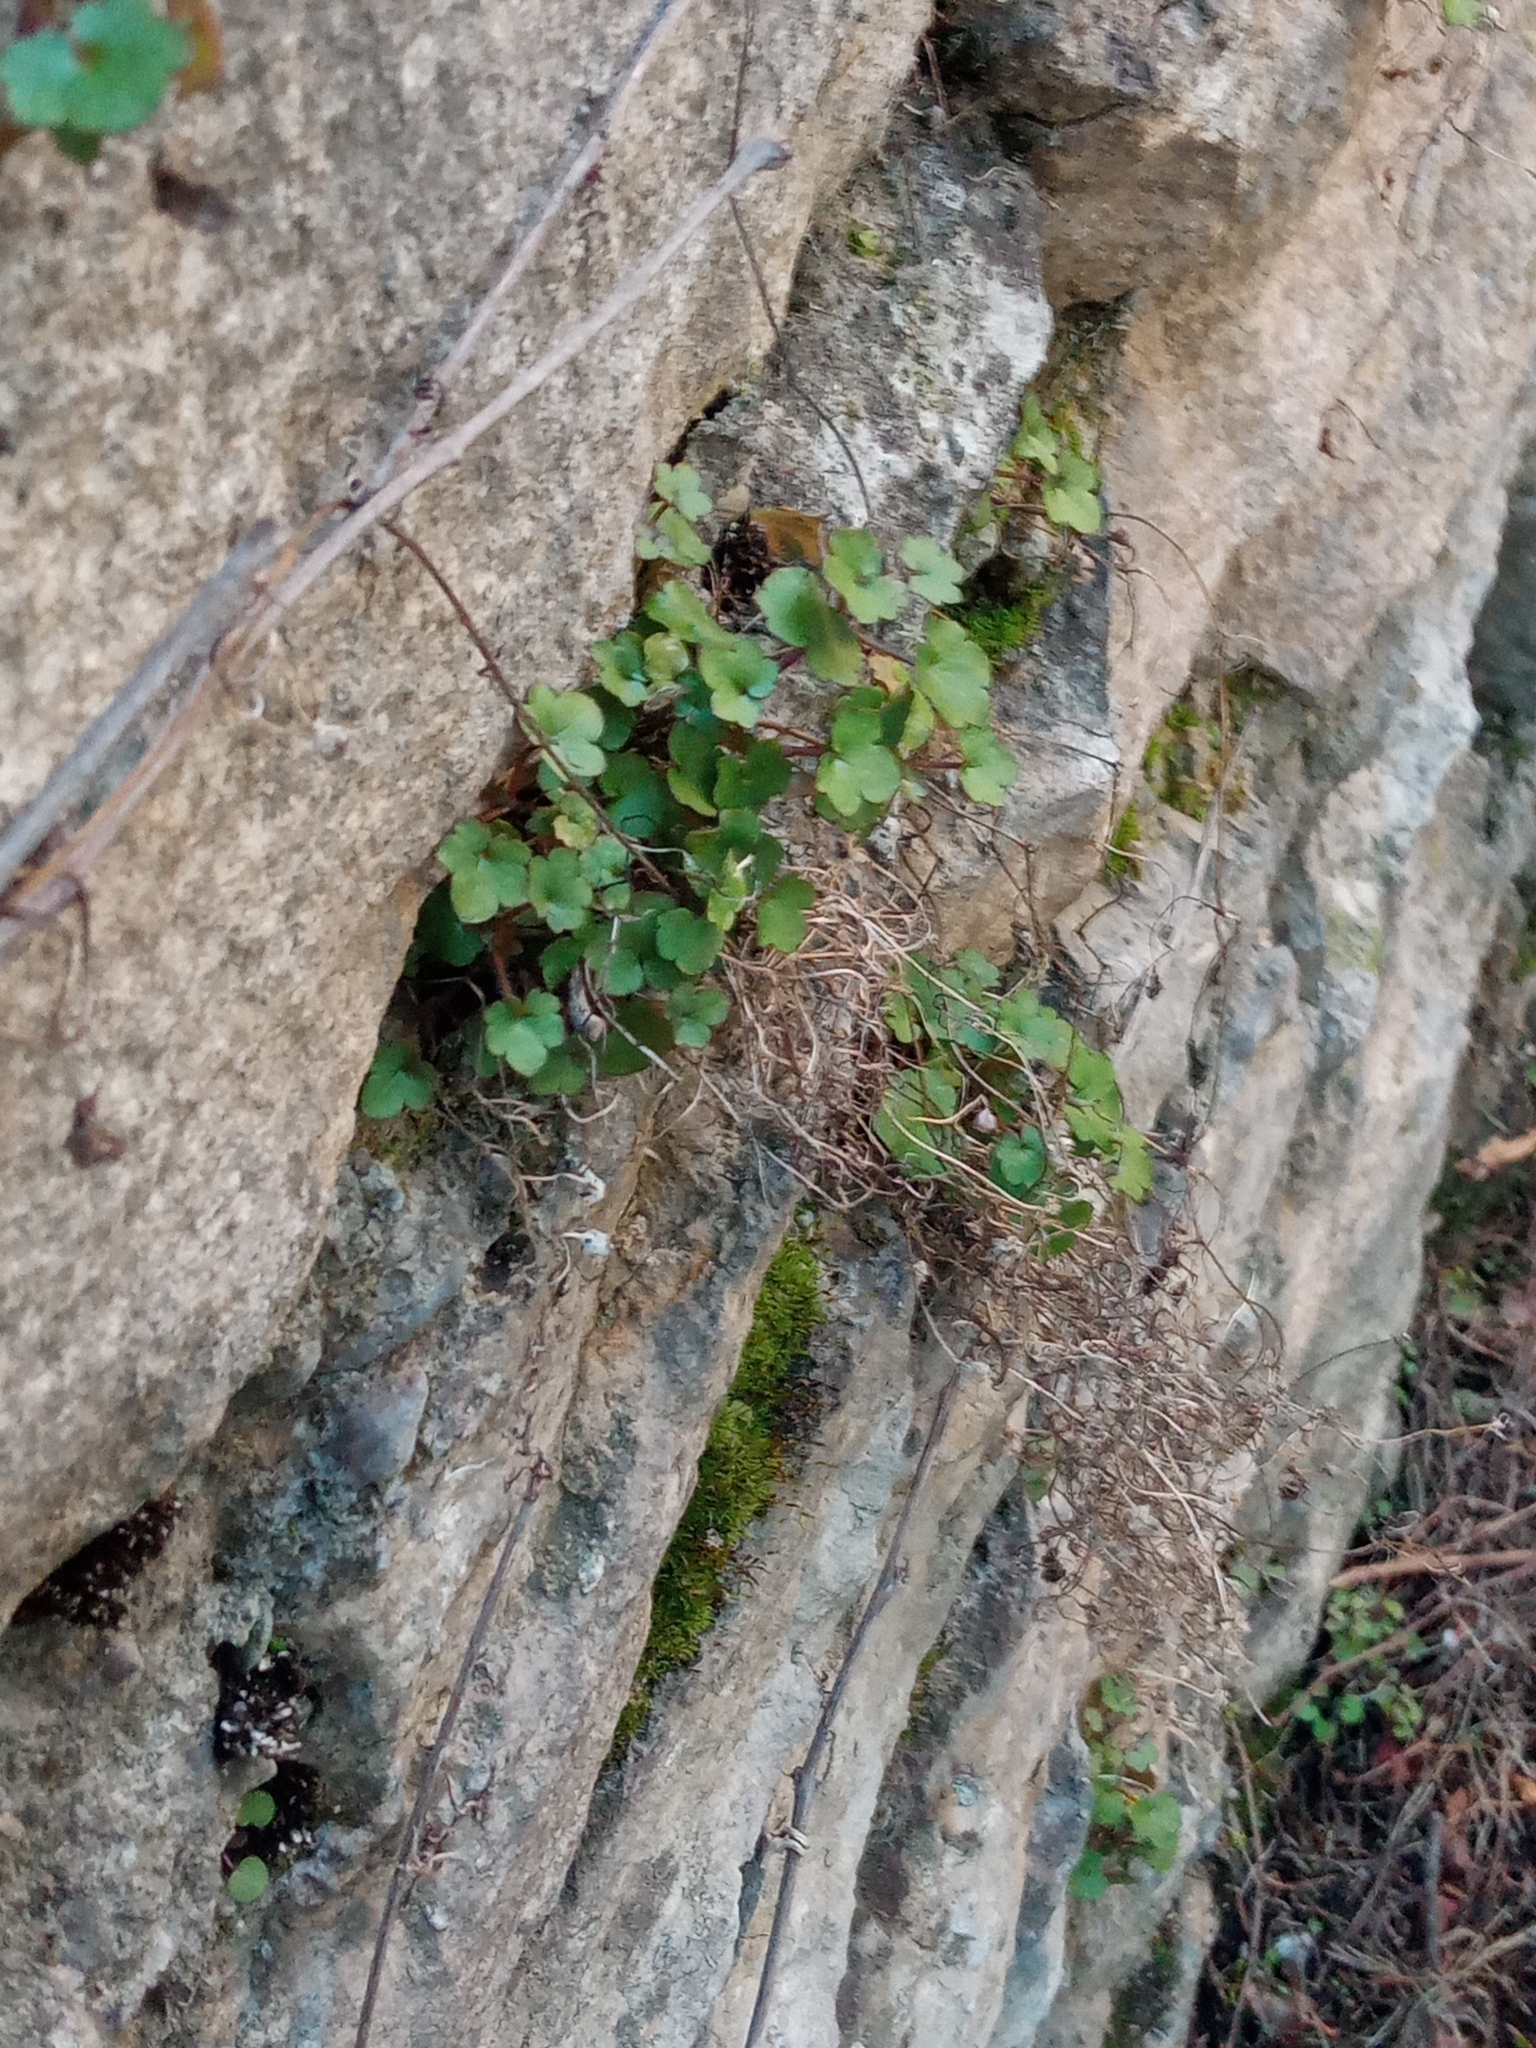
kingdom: Plantae
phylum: Tracheophyta
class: Magnoliopsida
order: Lamiales
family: Plantaginaceae
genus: Cymbalaria
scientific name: Cymbalaria muralis
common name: Ivy-leaved toadflax
